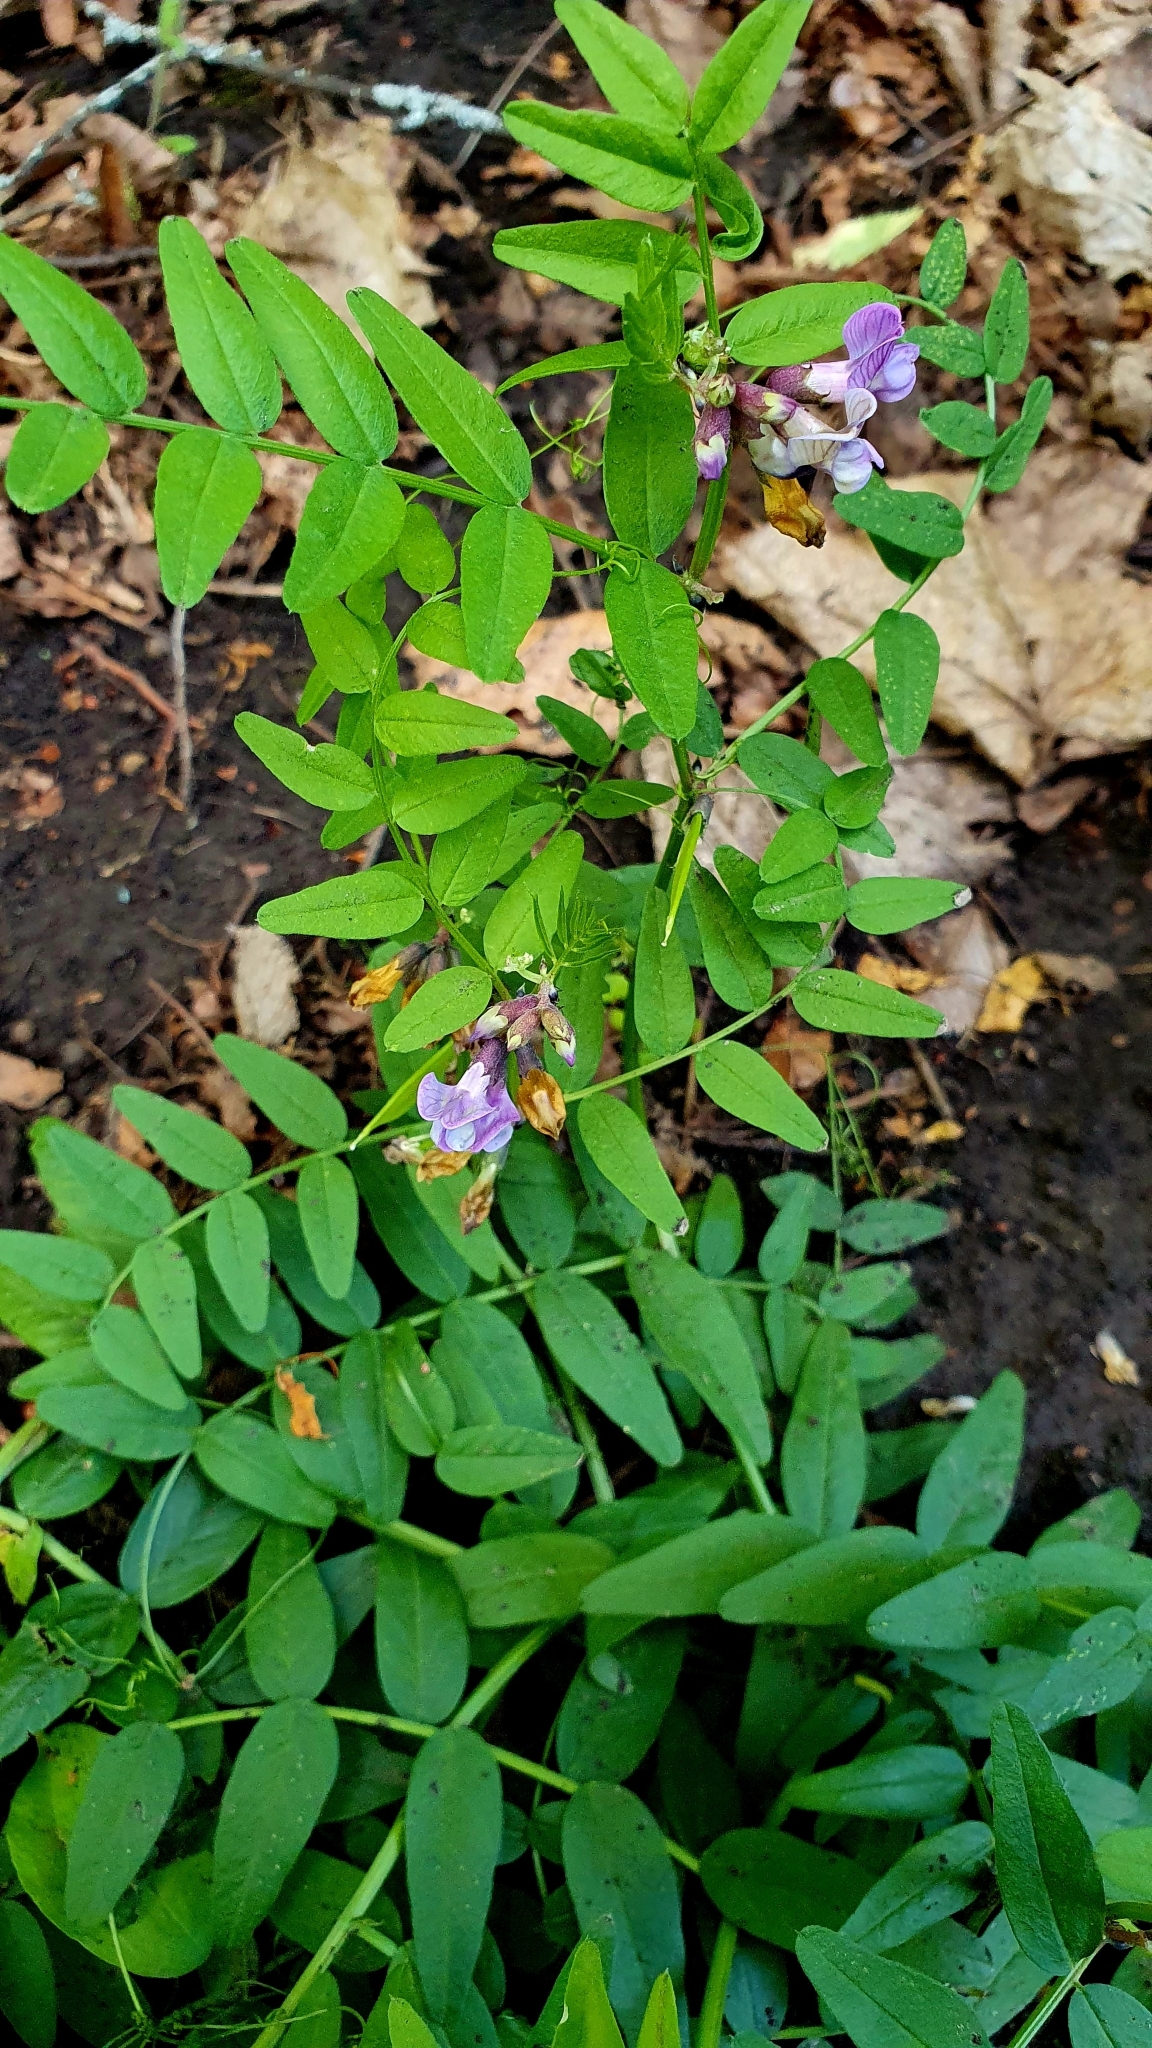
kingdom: Plantae
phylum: Tracheophyta
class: Magnoliopsida
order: Fabales
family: Fabaceae
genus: Vicia
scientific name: Vicia sepium
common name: Bush vetch
